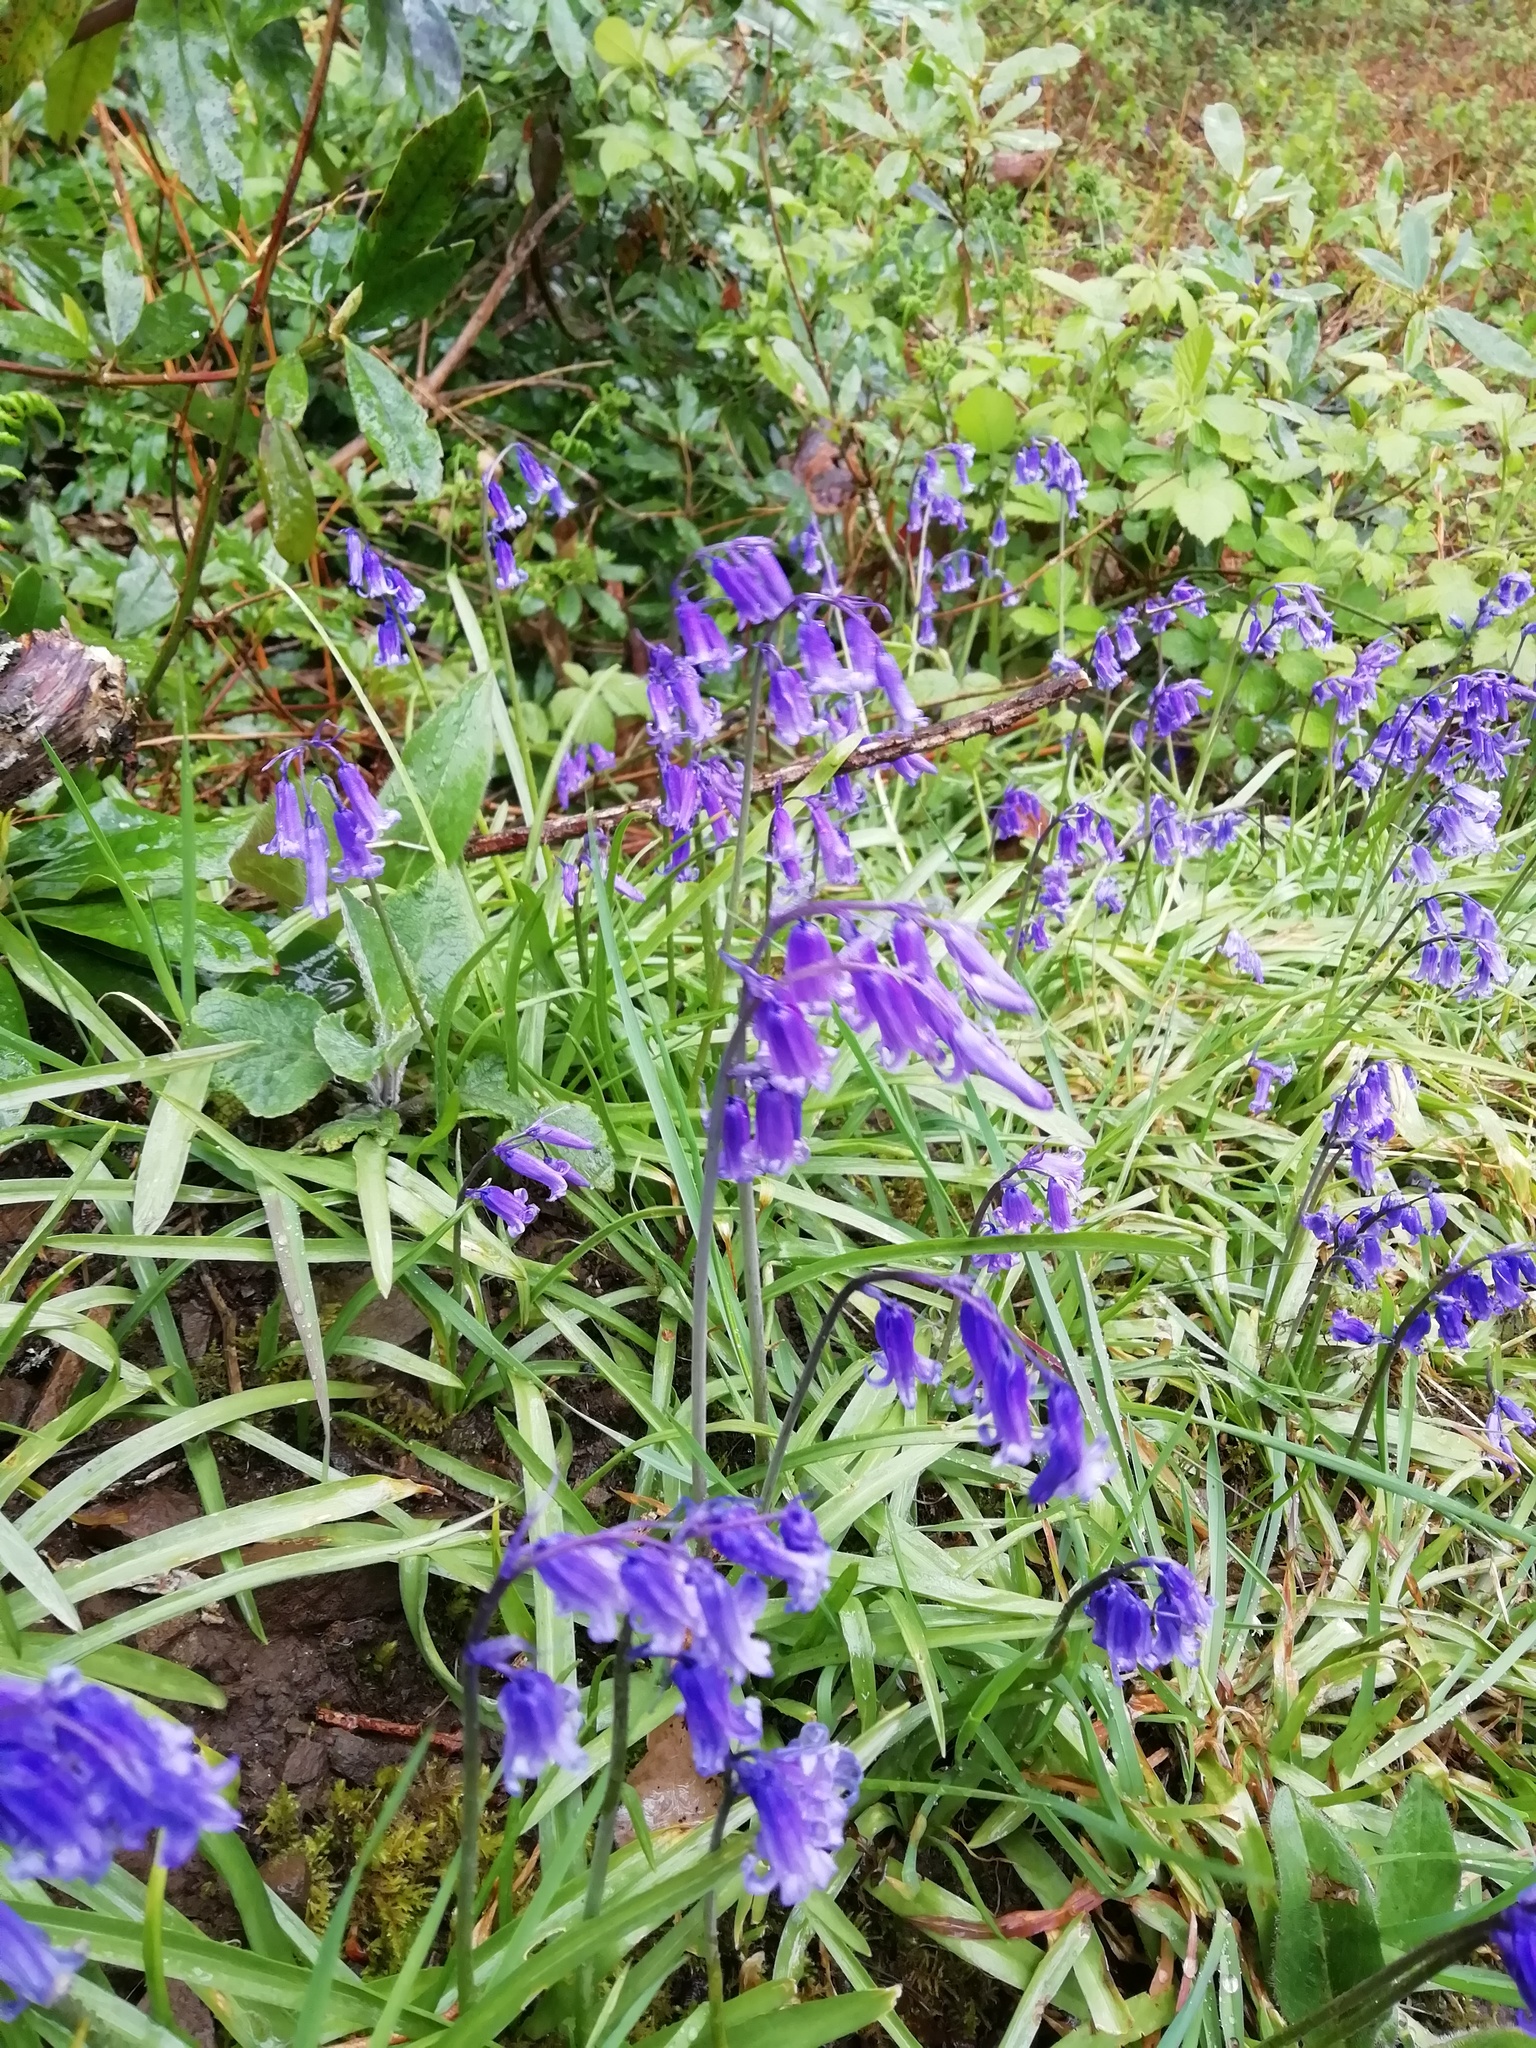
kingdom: Plantae
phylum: Tracheophyta
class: Liliopsida
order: Asparagales
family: Asparagaceae
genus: Hyacinthoides
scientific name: Hyacinthoides non-scripta
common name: Bluebell
